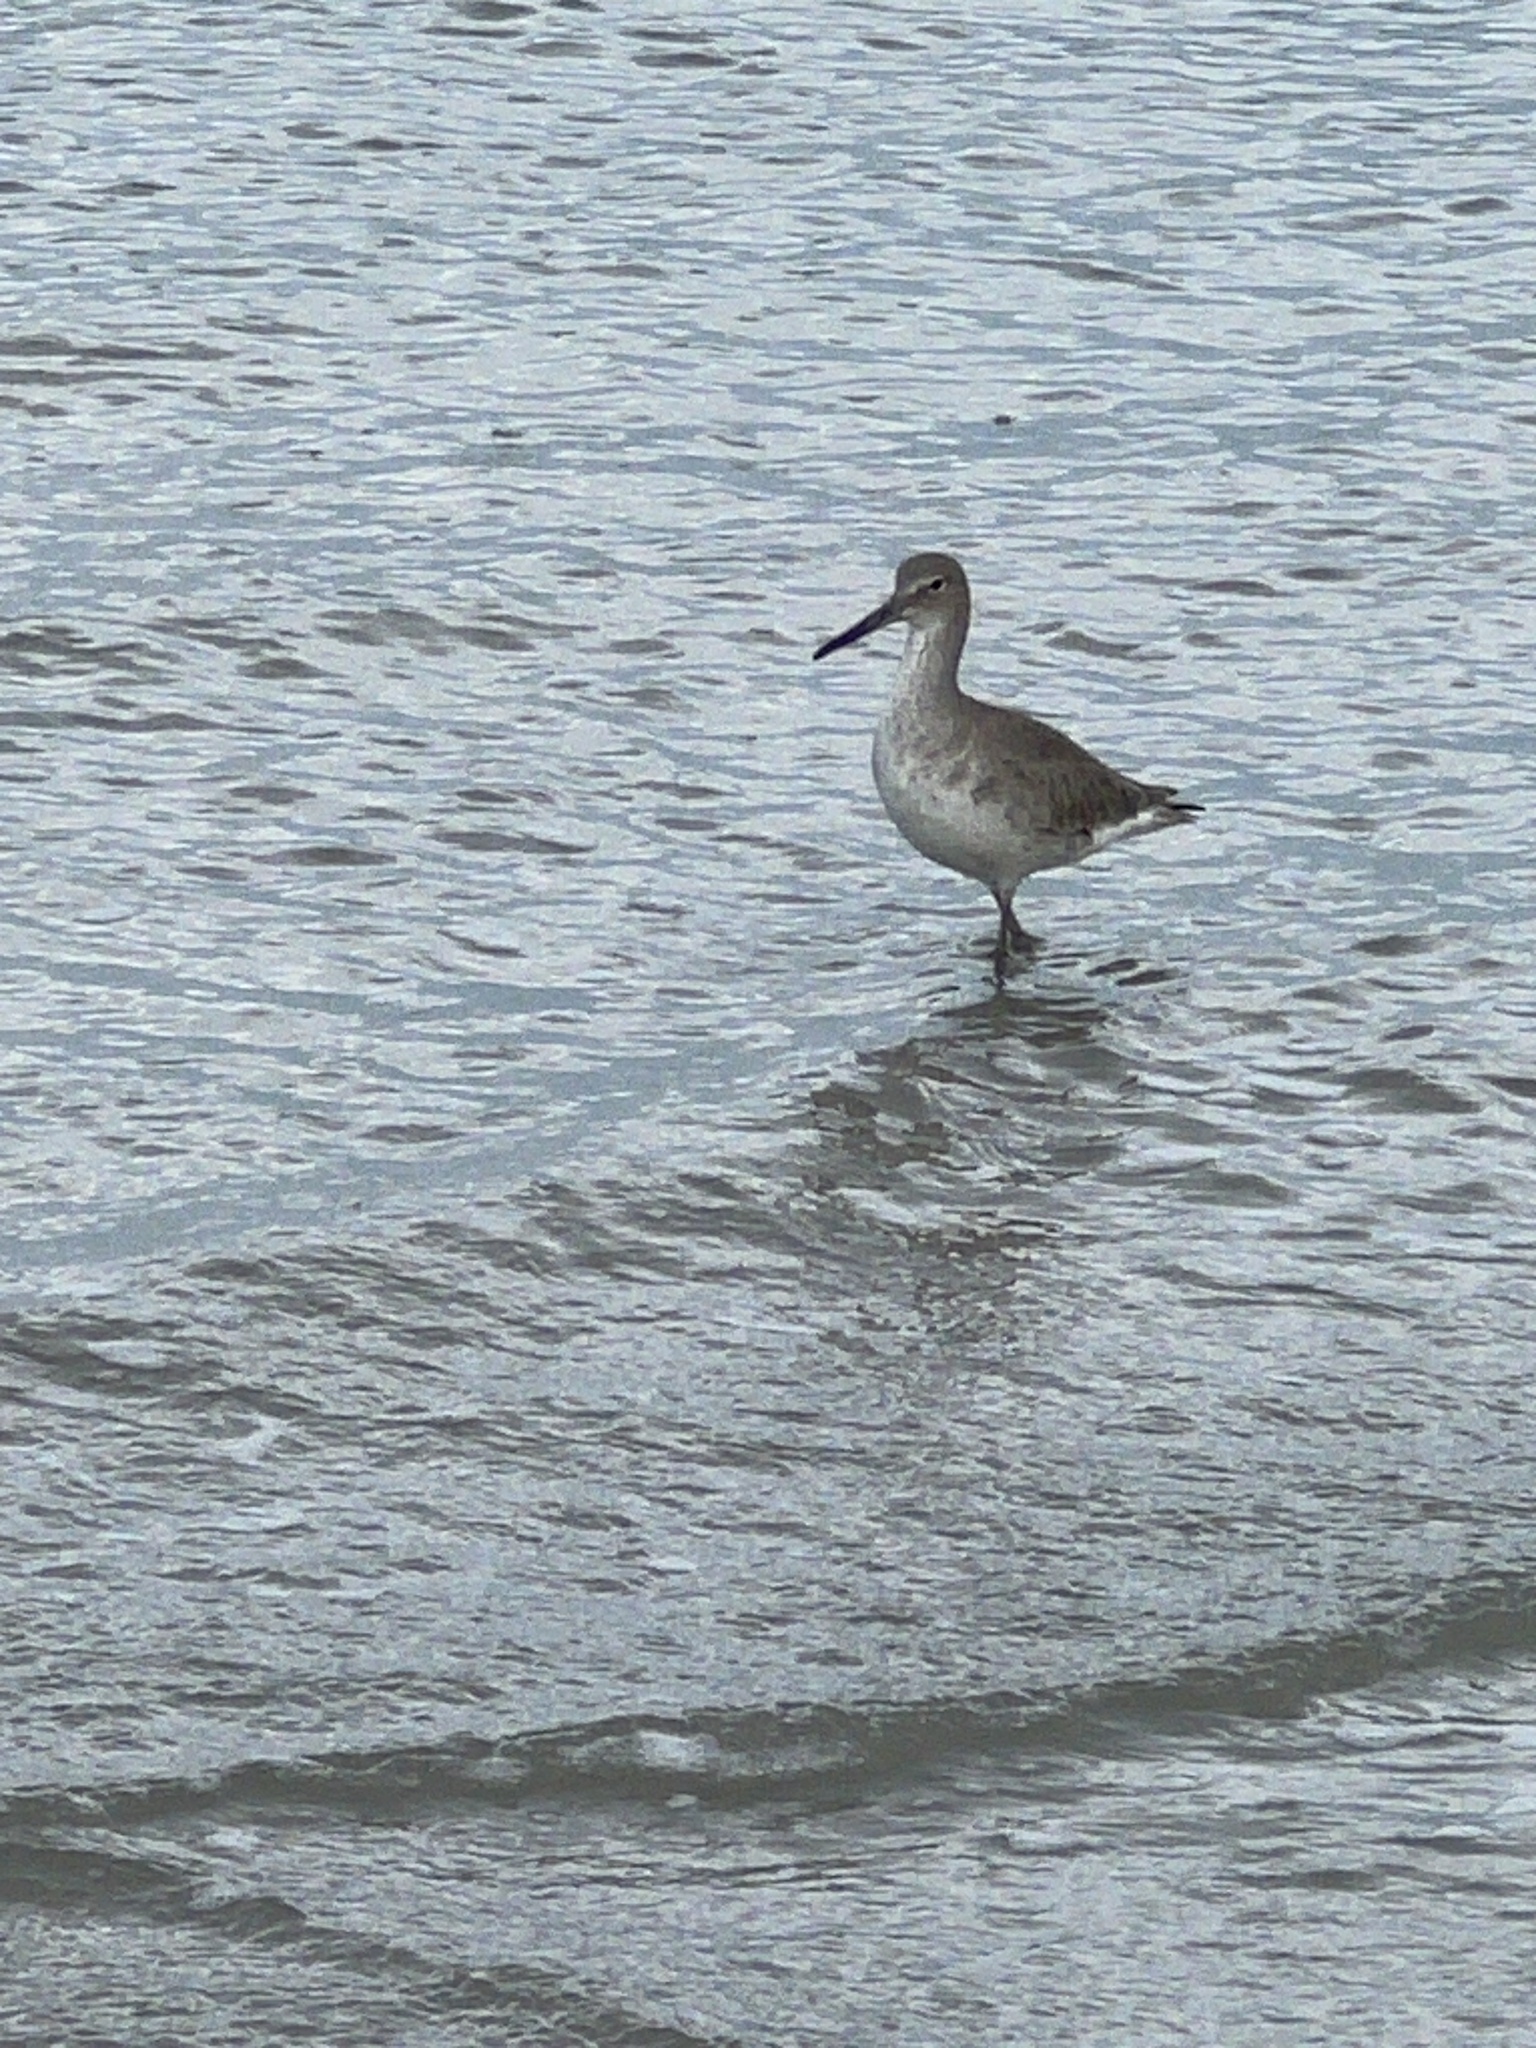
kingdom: Animalia
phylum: Chordata
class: Aves
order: Charadriiformes
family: Scolopacidae
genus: Tringa
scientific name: Tringa semipalmata
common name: Willet
